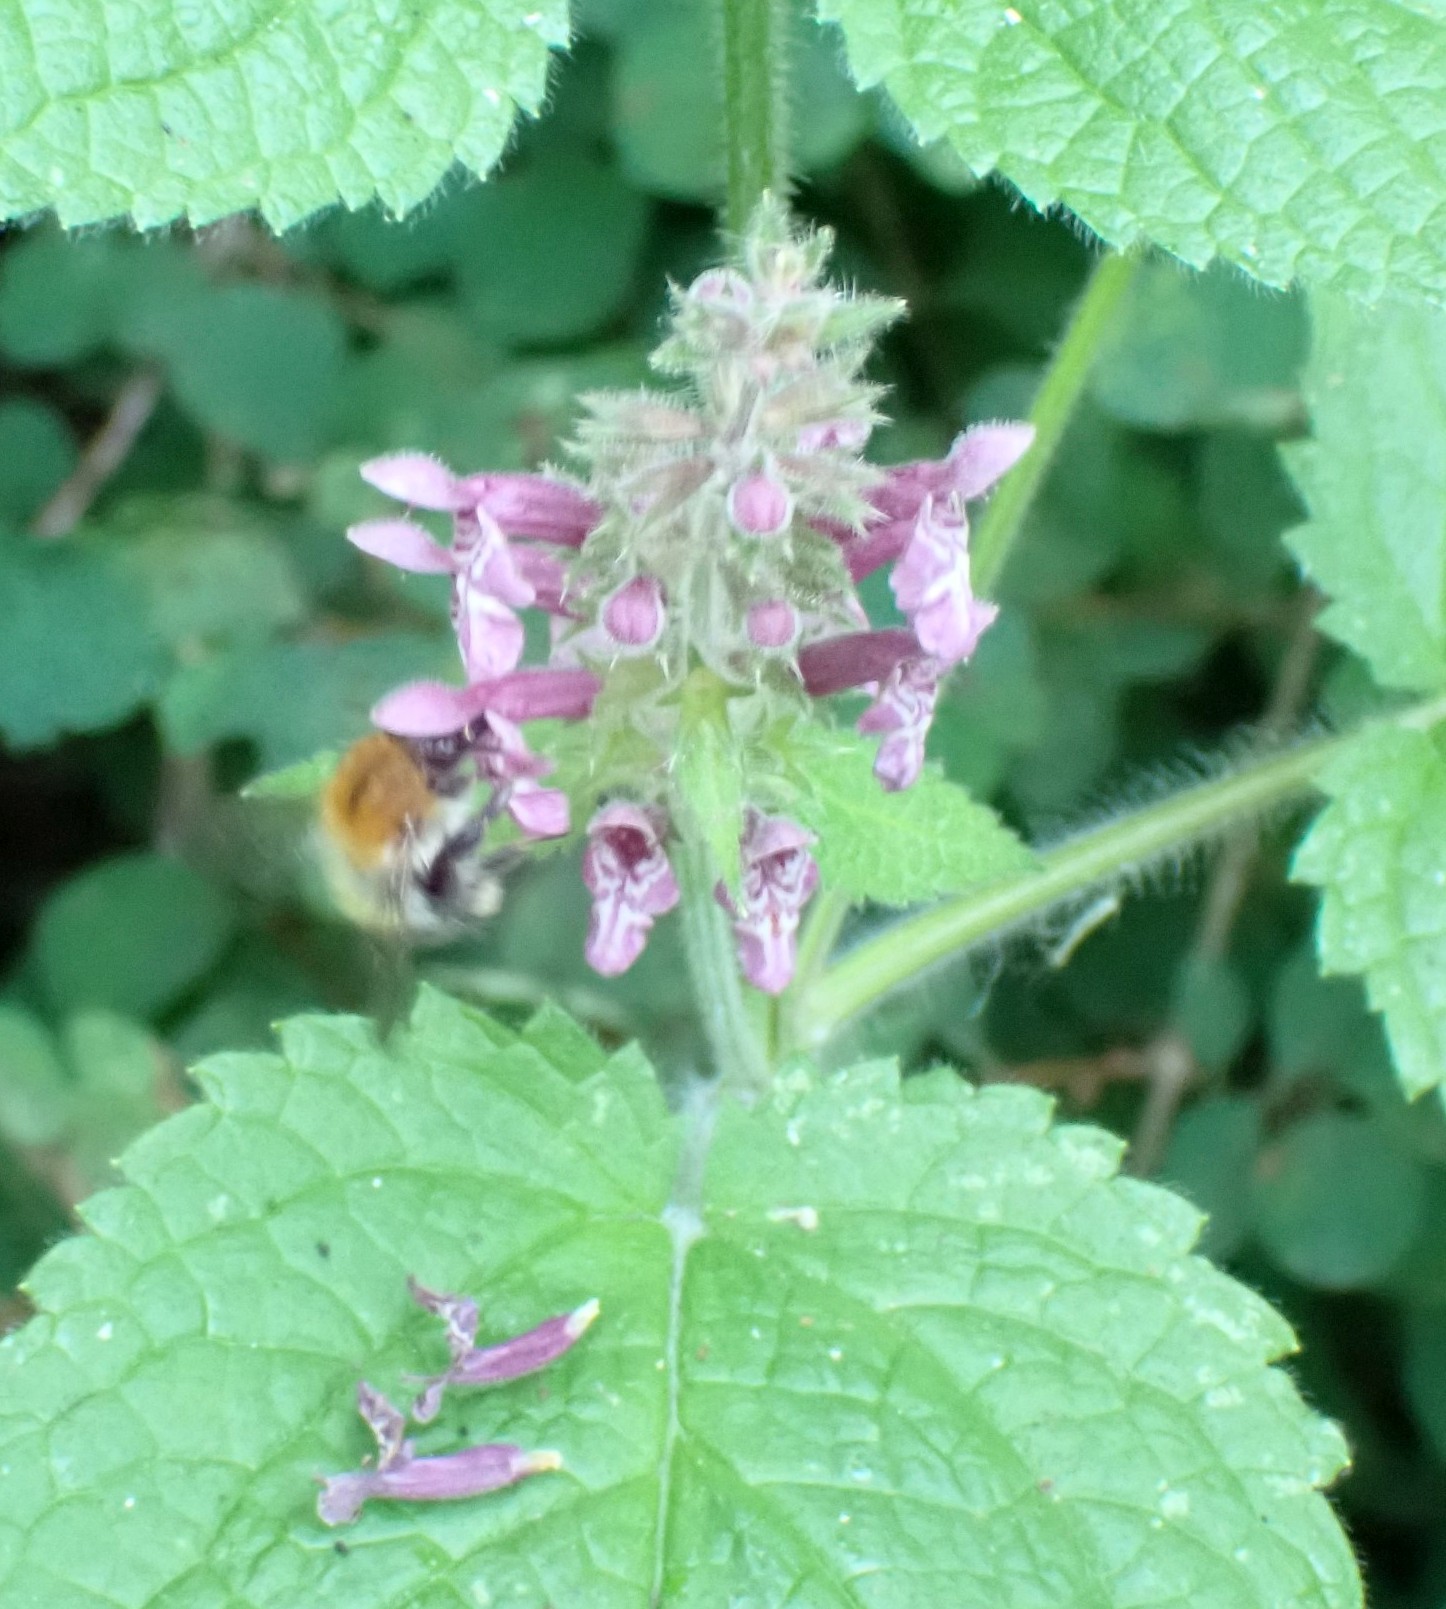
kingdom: Plantae
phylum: Tracheophyta
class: Magnoliopsida
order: Lamiales
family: Lamiaceae
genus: Stachys
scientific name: Stachys sylvatica
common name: Hedge woundwort
